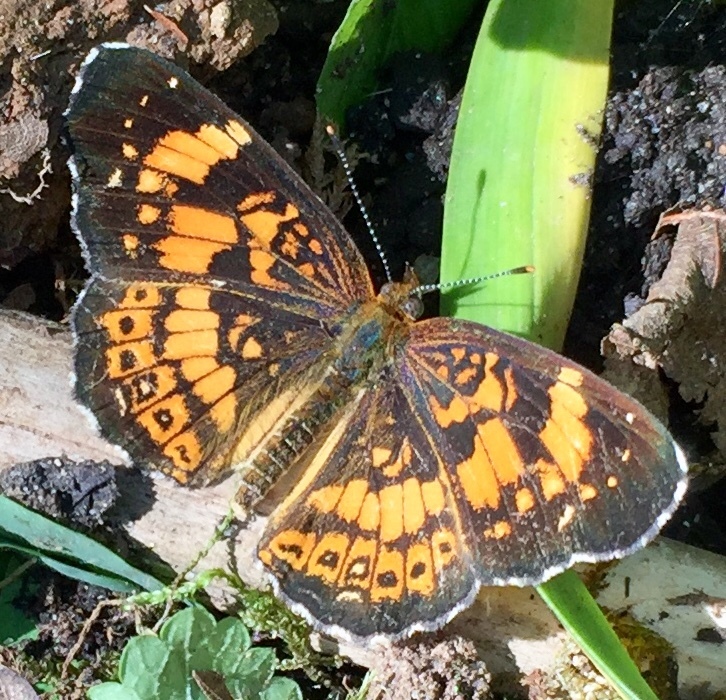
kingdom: Animalia
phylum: Arthropoda
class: Insecta
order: Lepidoptera
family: Nymphalidae
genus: Chlosyne
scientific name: Chlosyne nycteis
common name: Silvery checkerspot
